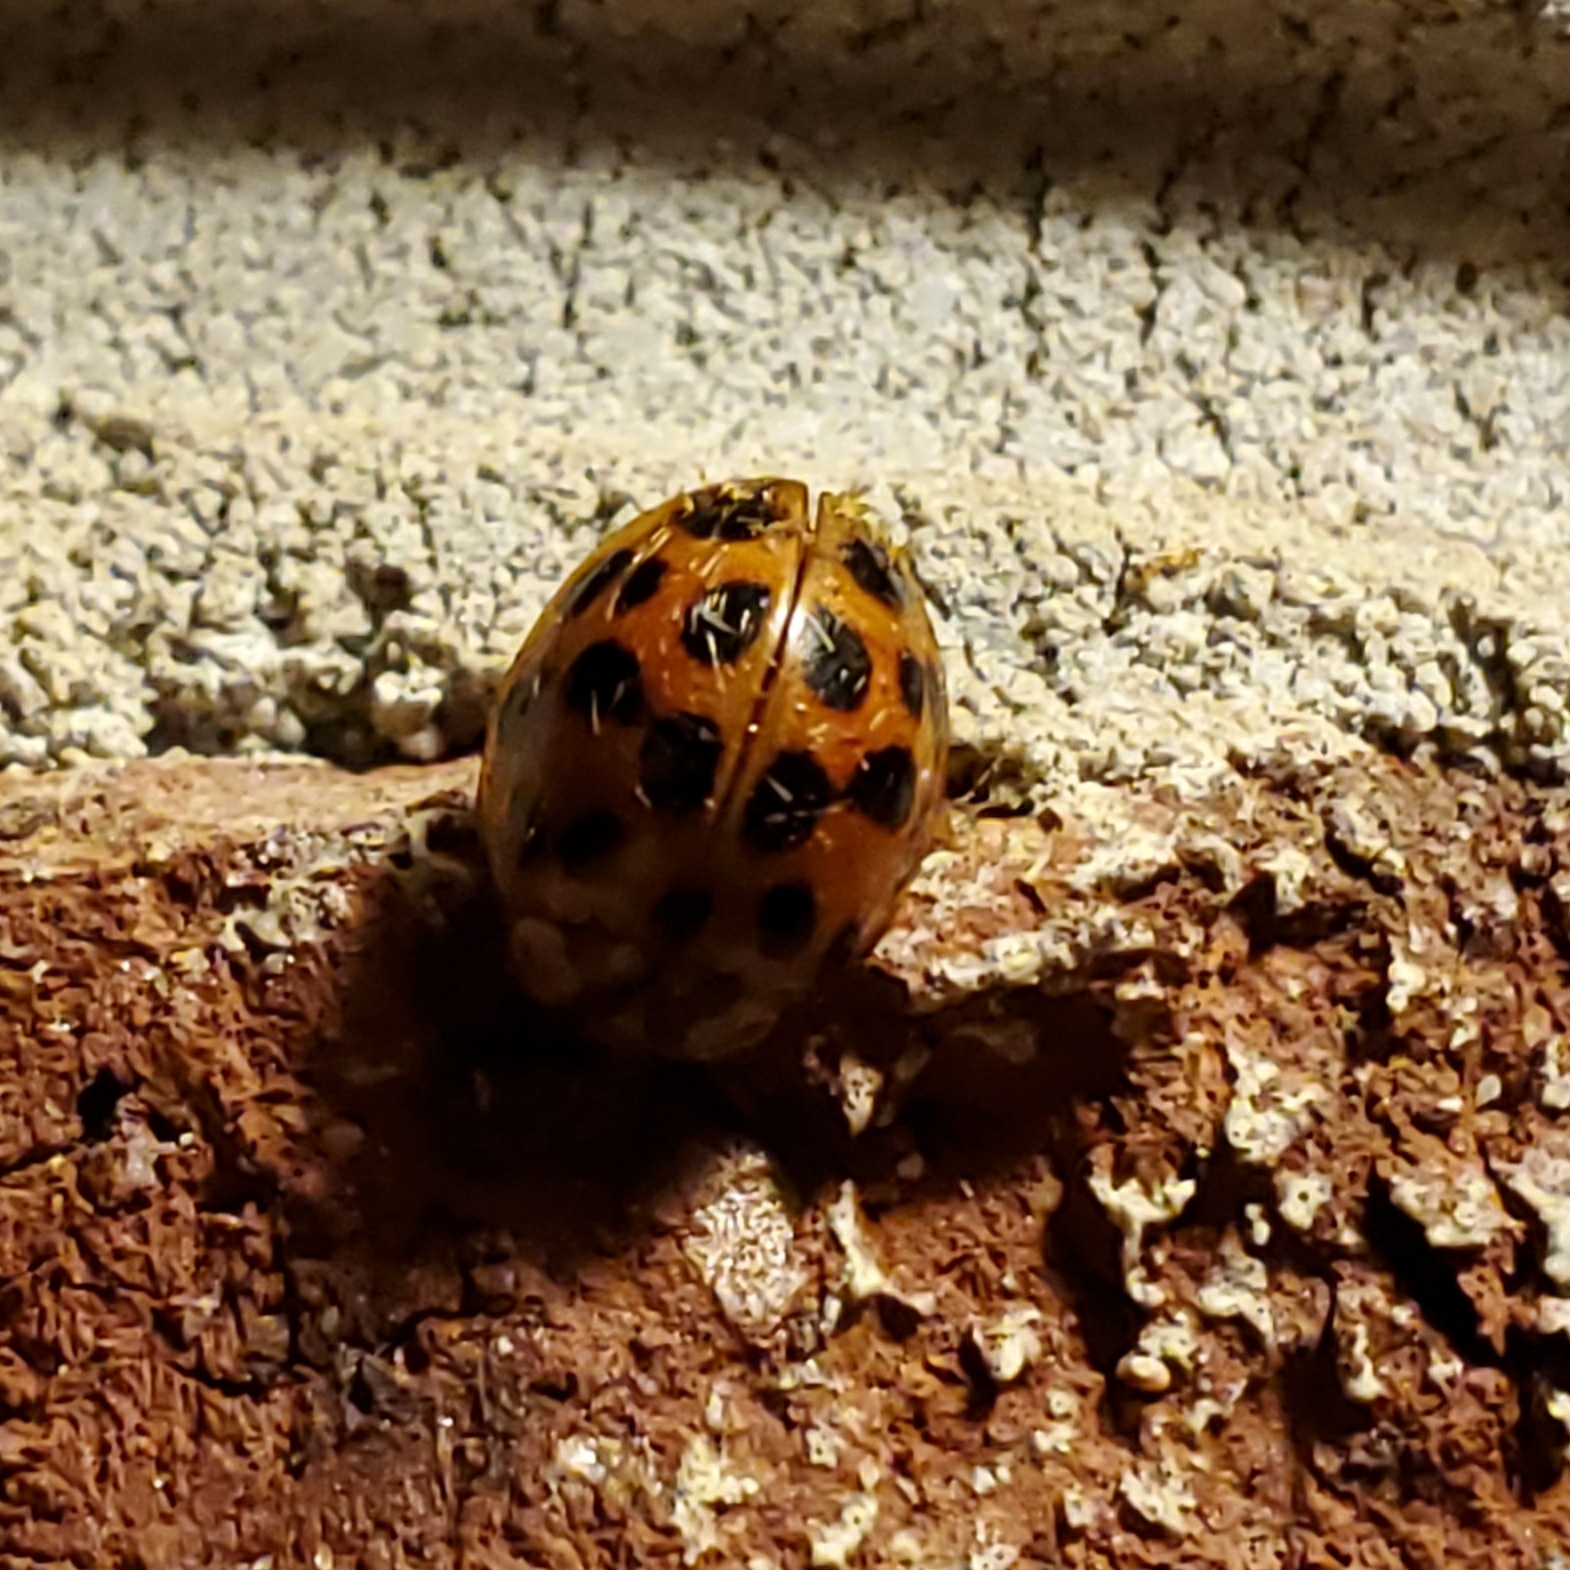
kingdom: Animalia
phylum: Arthropoda
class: Insecta
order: Coleoptera
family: Coccinellidae
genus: Harmonia
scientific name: Harmonia axyridis
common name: Harlequin ladybird
